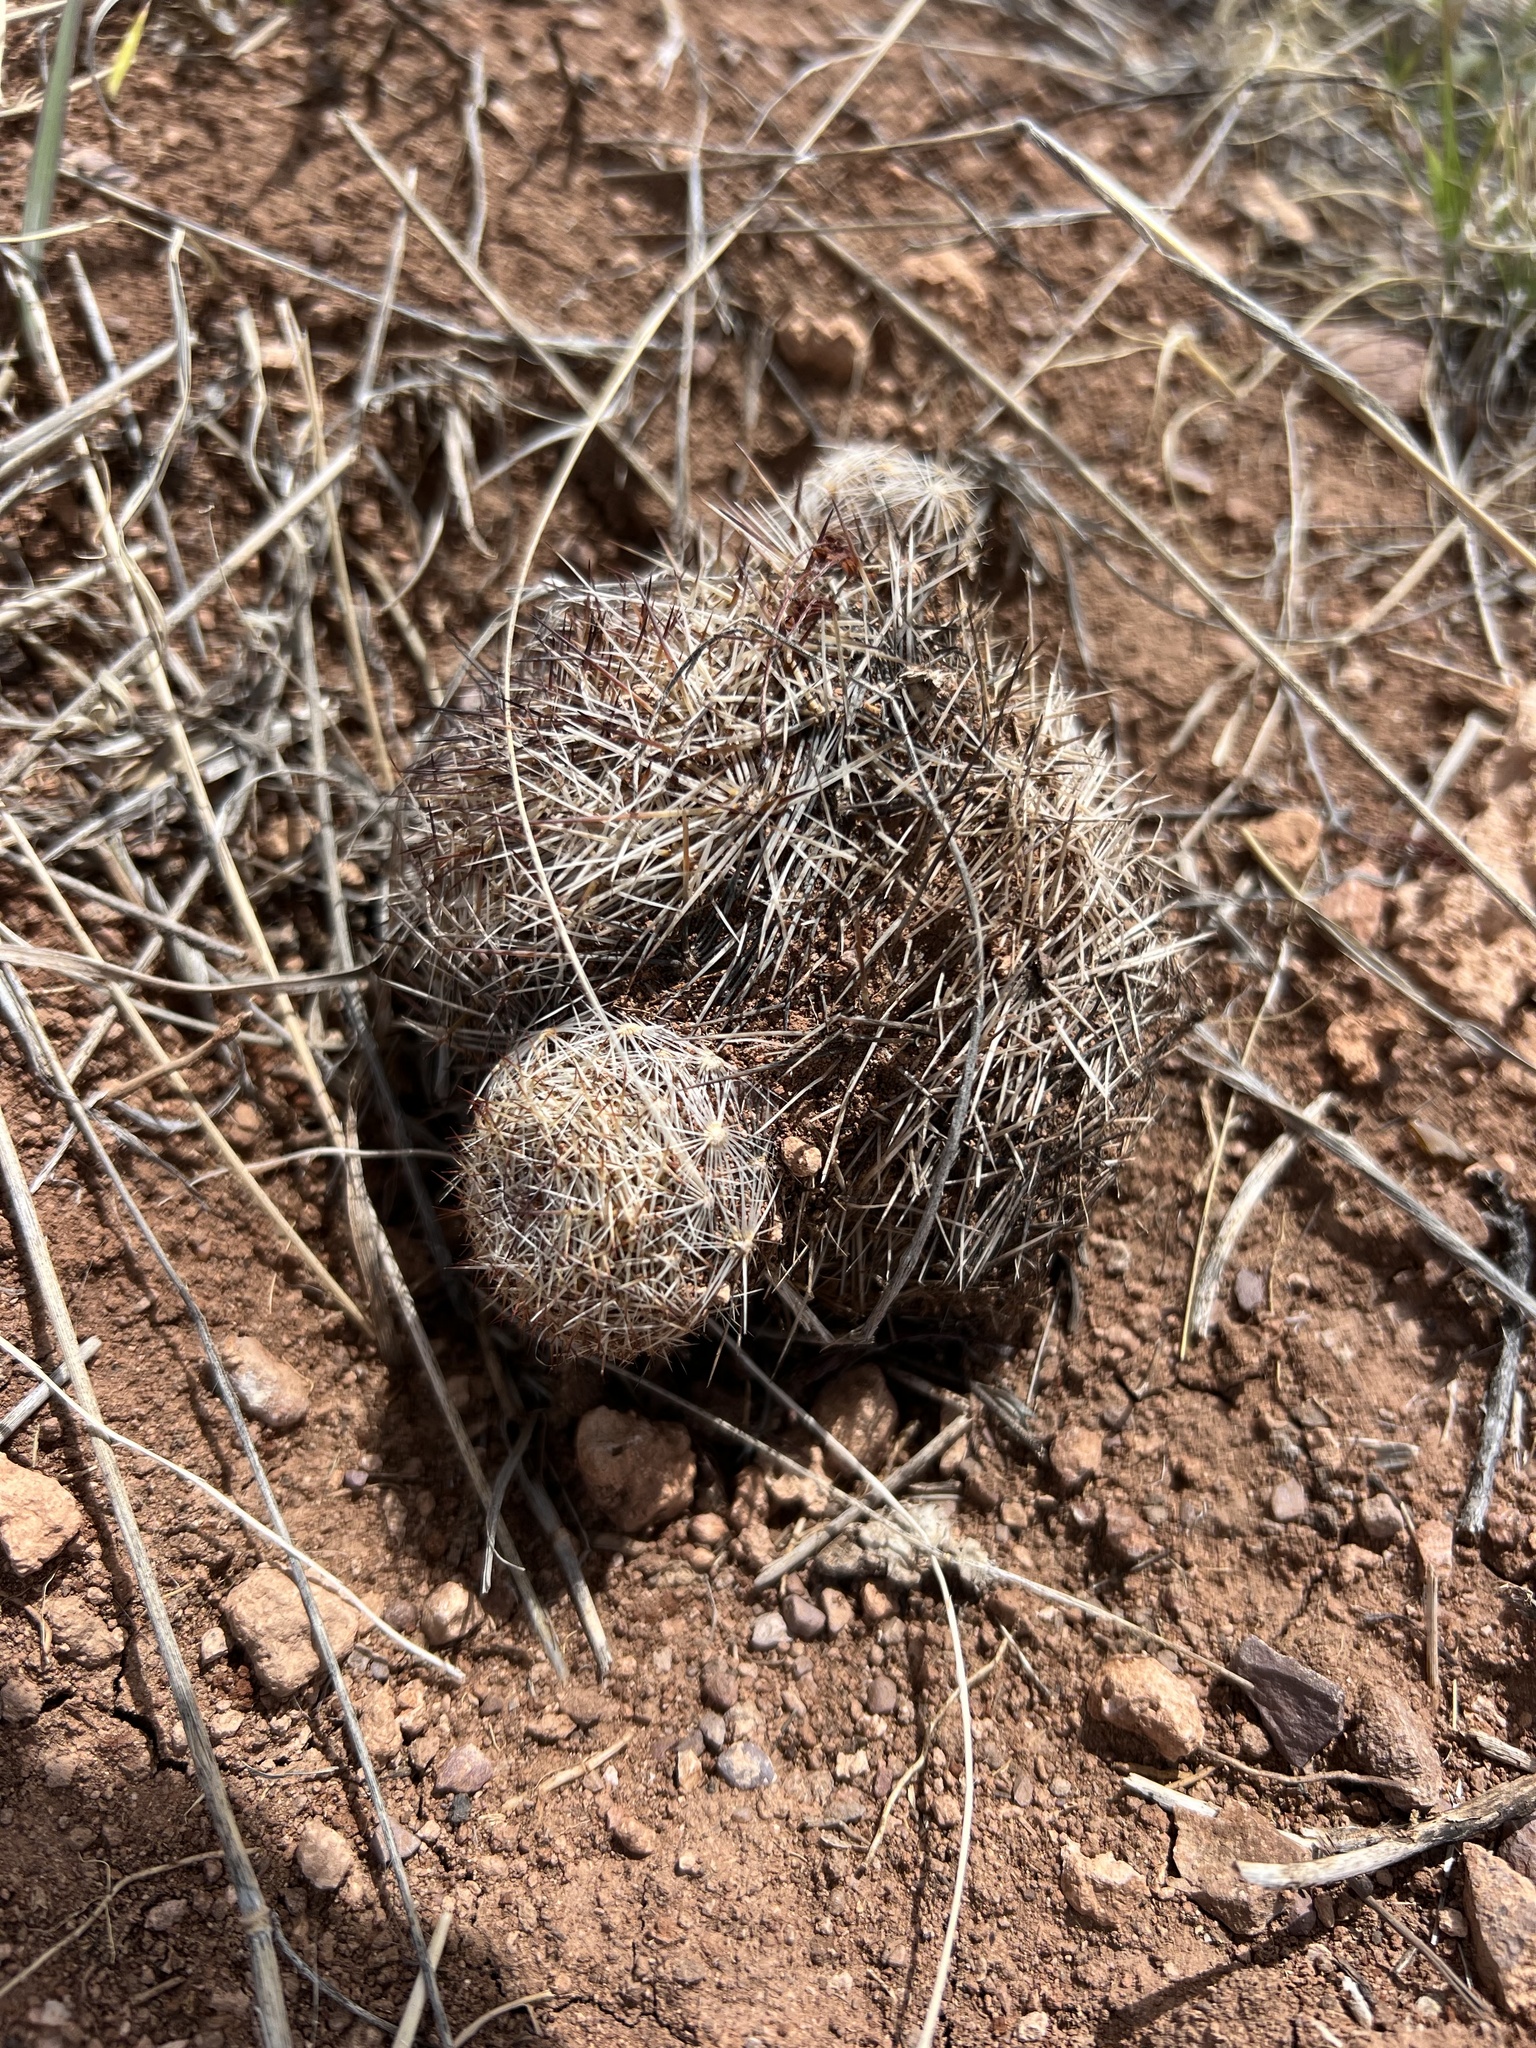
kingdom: Plantae
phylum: Tracheophyta
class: Magnoliopsida
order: Caryophyllales
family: Cactaceae
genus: Pelecyphora
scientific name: Pelecyphora vivipara
